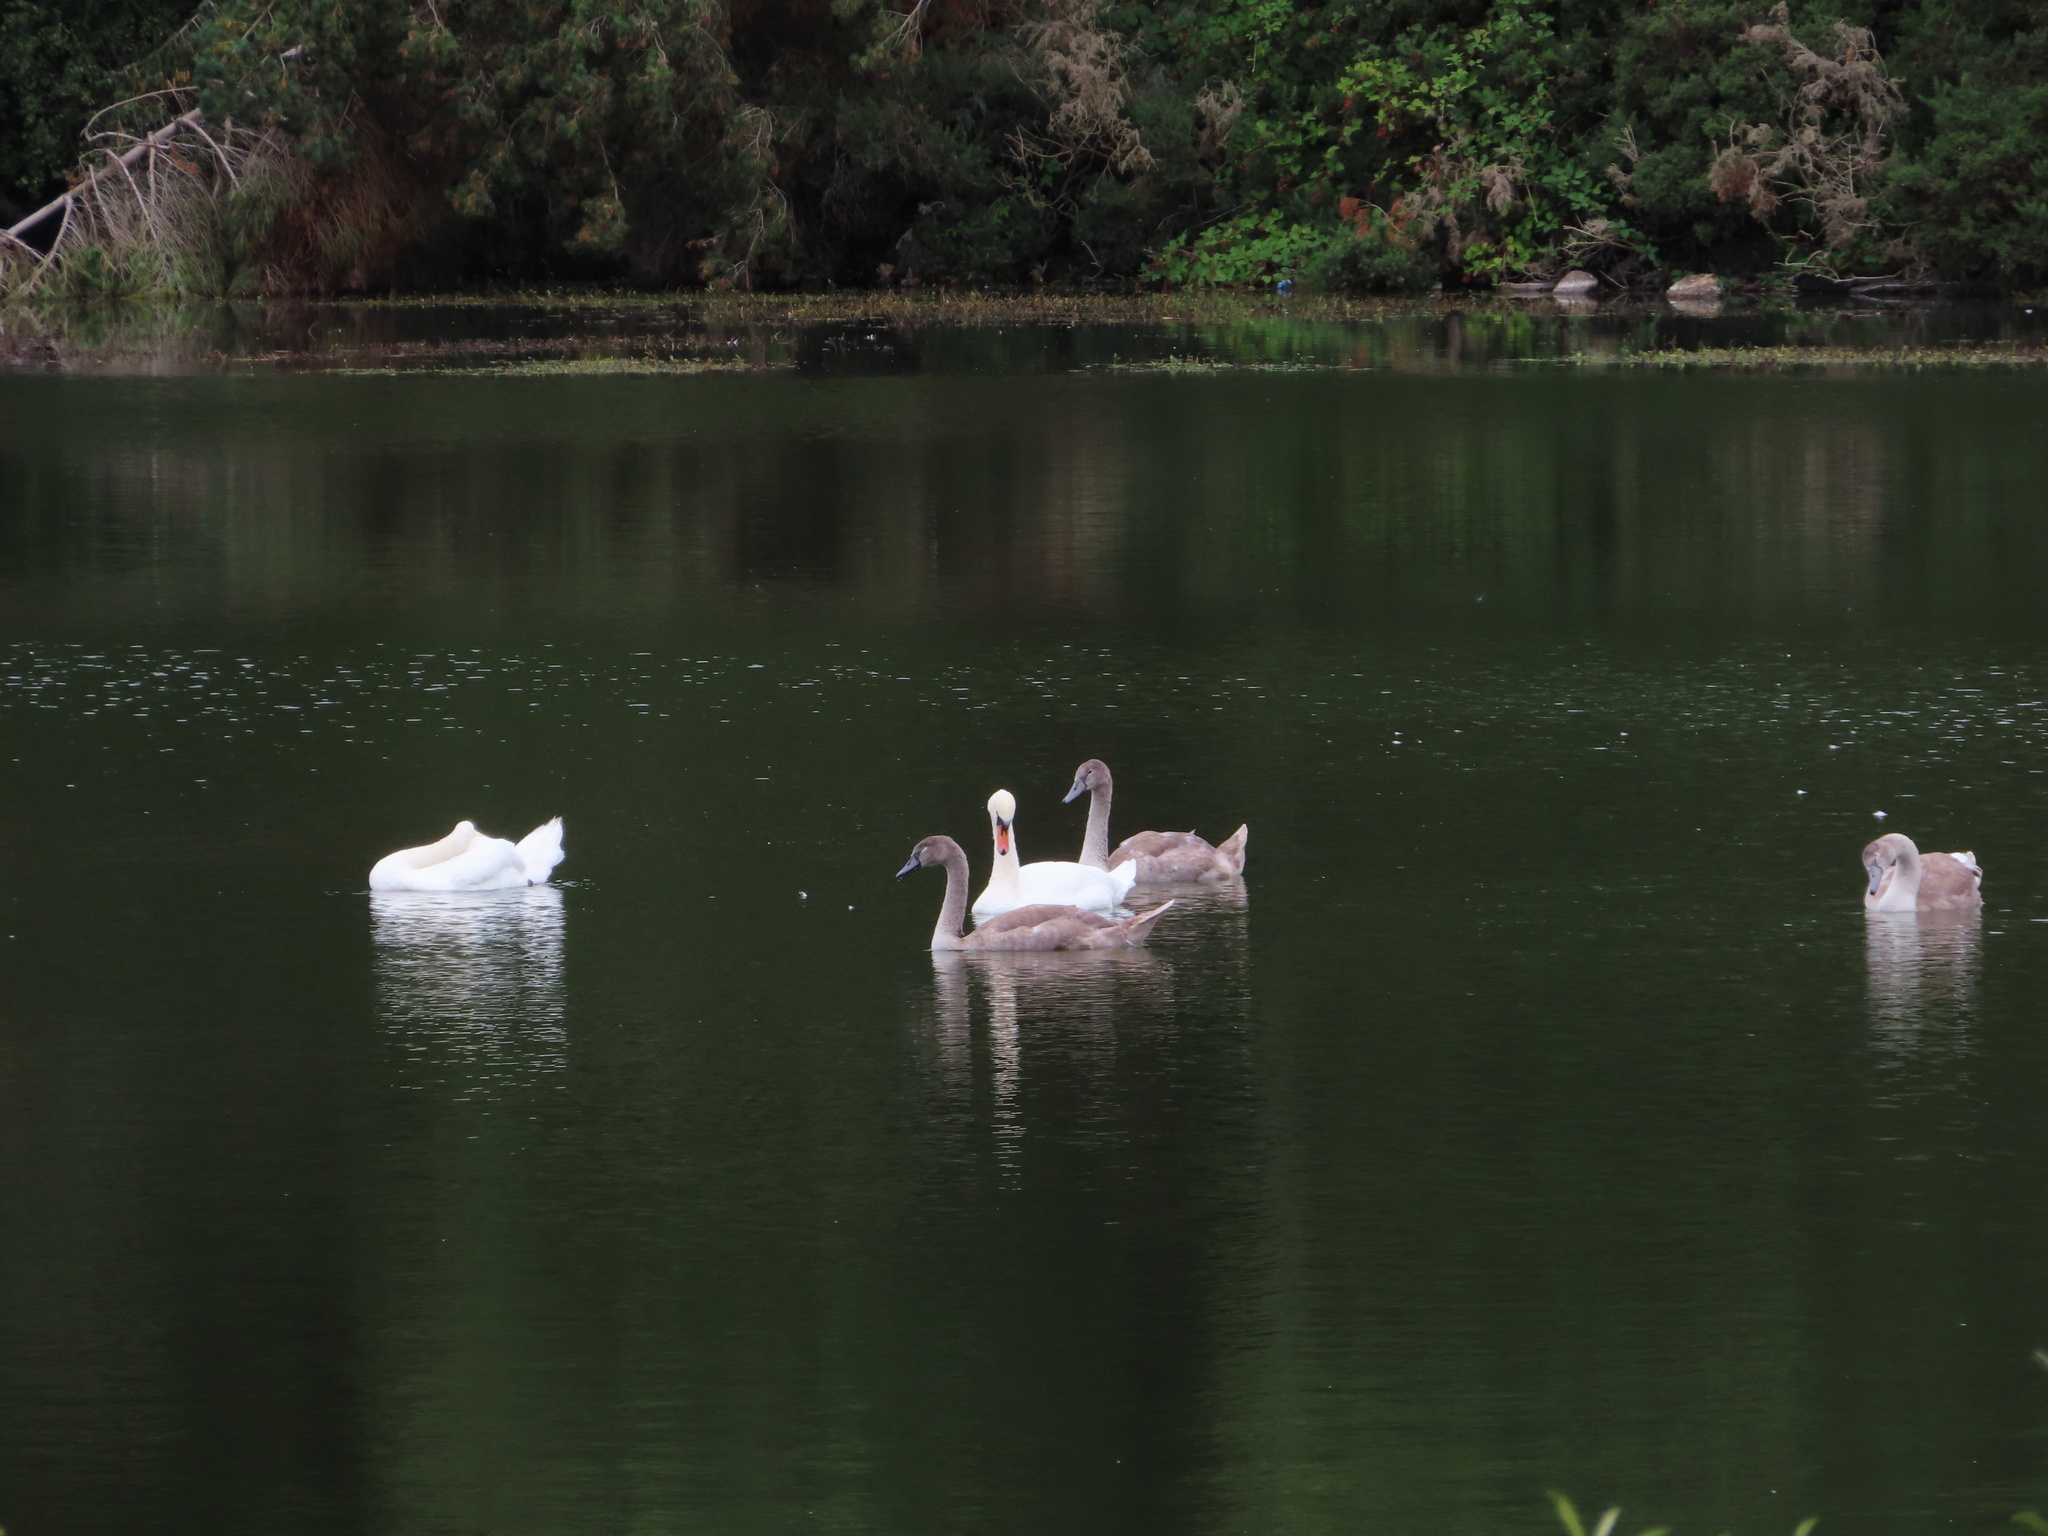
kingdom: Animalia
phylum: Chordata
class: Aves
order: Anseriformes
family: Anatidae
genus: Cygnus
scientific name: Cygnus olor
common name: Mute swan
